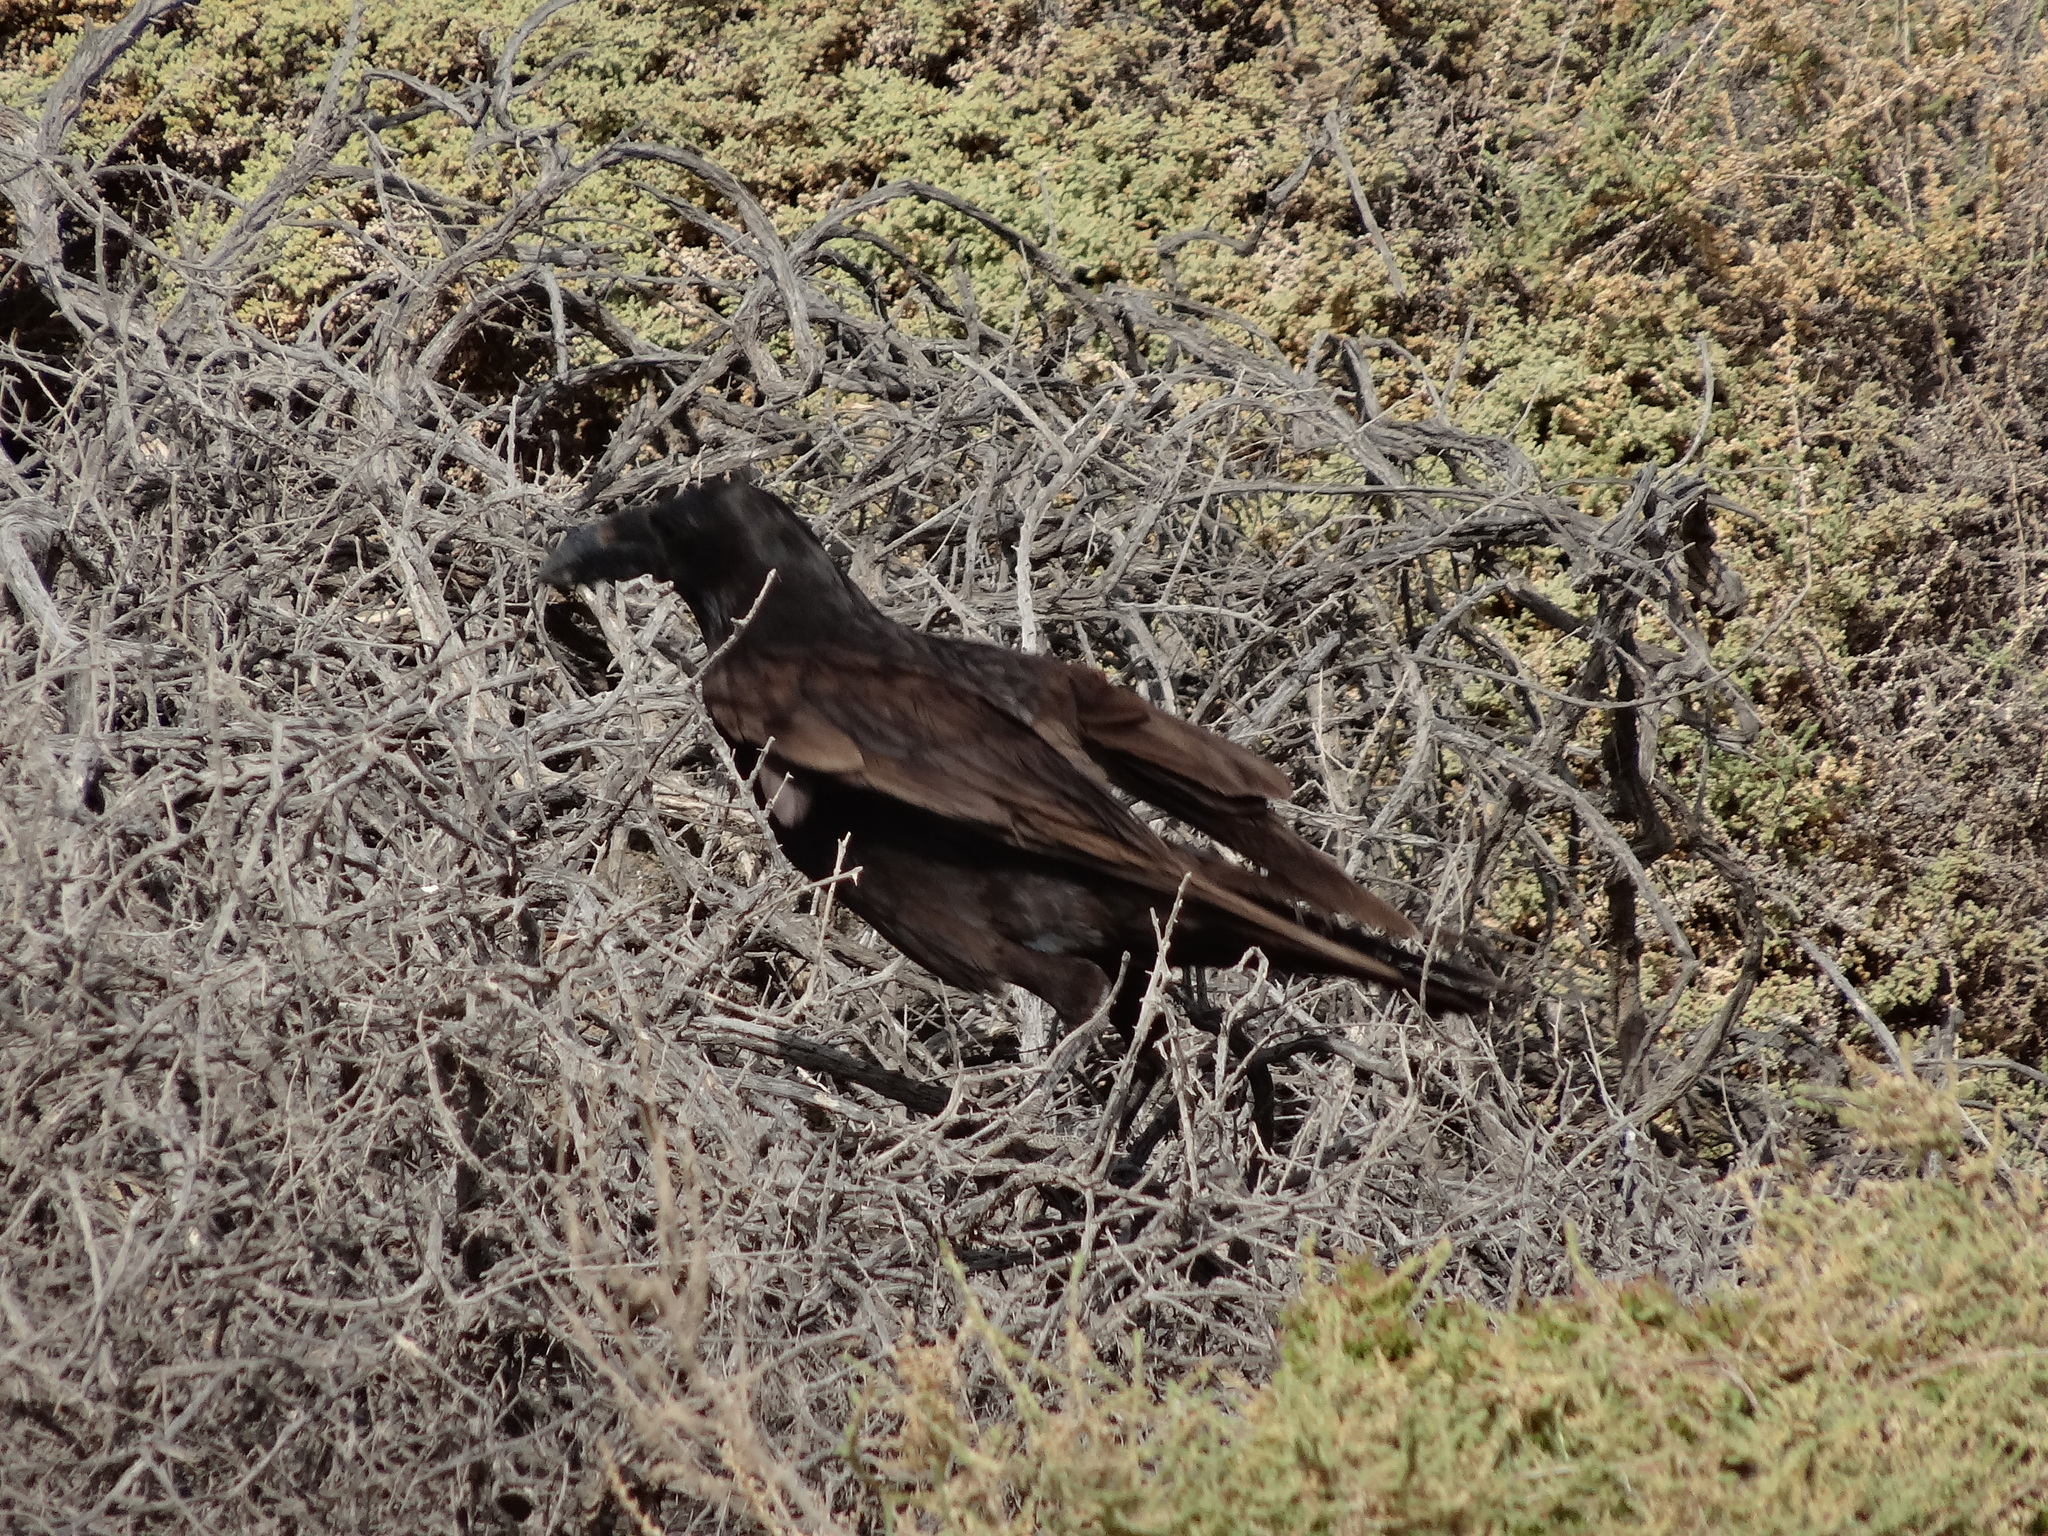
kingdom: Animalia
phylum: Chordata
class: Aves
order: Passeriformes
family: Corvidae
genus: Corvus
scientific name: Corvus corax
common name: Common raven
